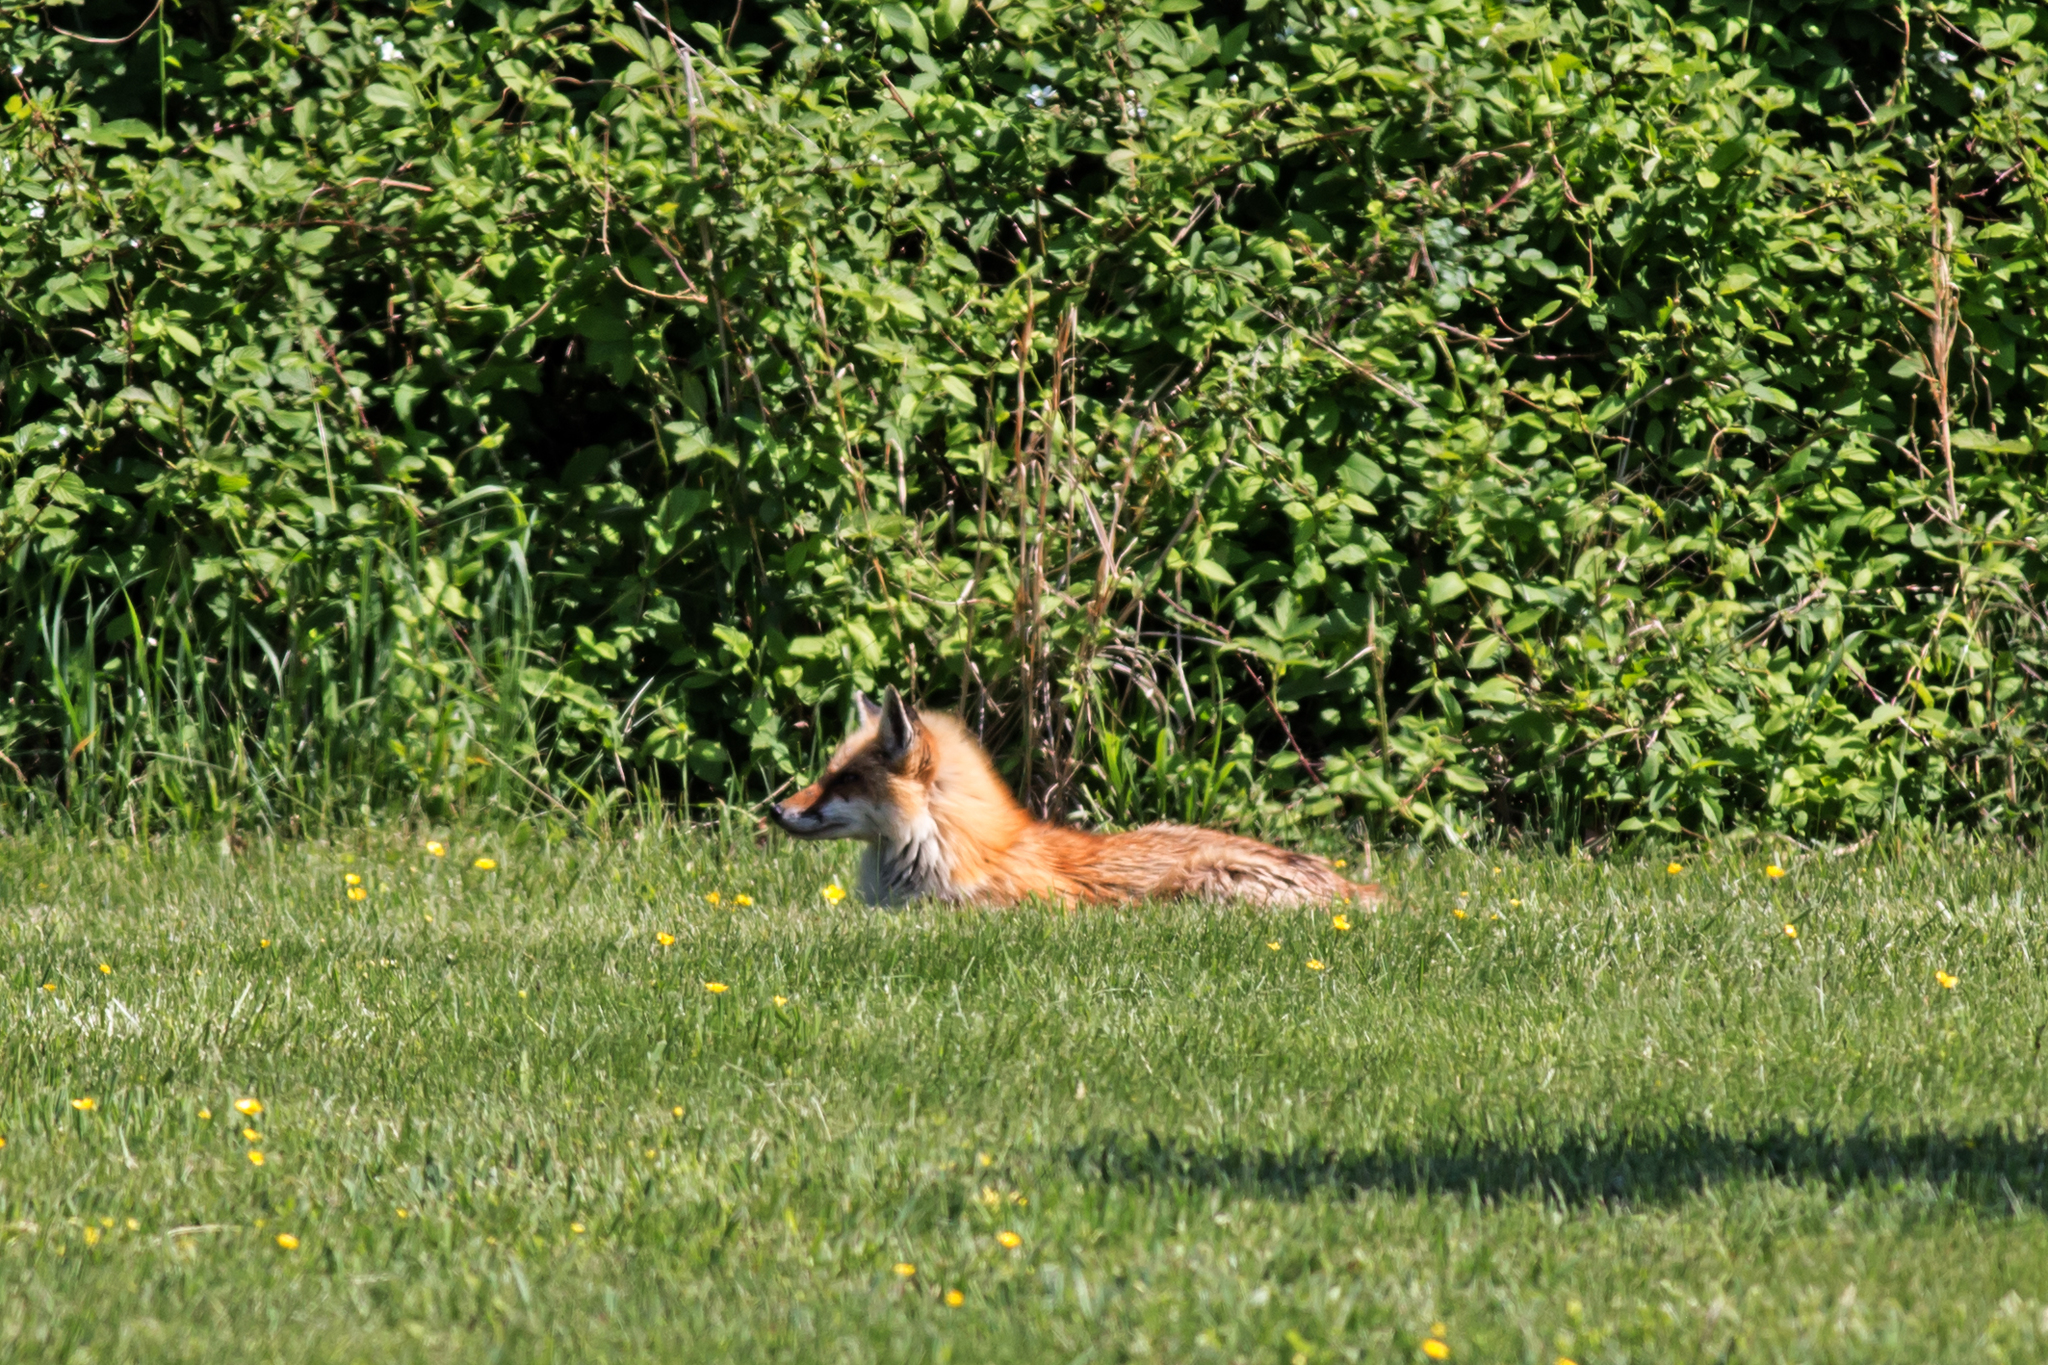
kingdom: Animalia
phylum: Chordata
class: Mammalia
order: Carnivora
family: Canidae
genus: Vulpes
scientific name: Vulpes vulpes
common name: Red fox
